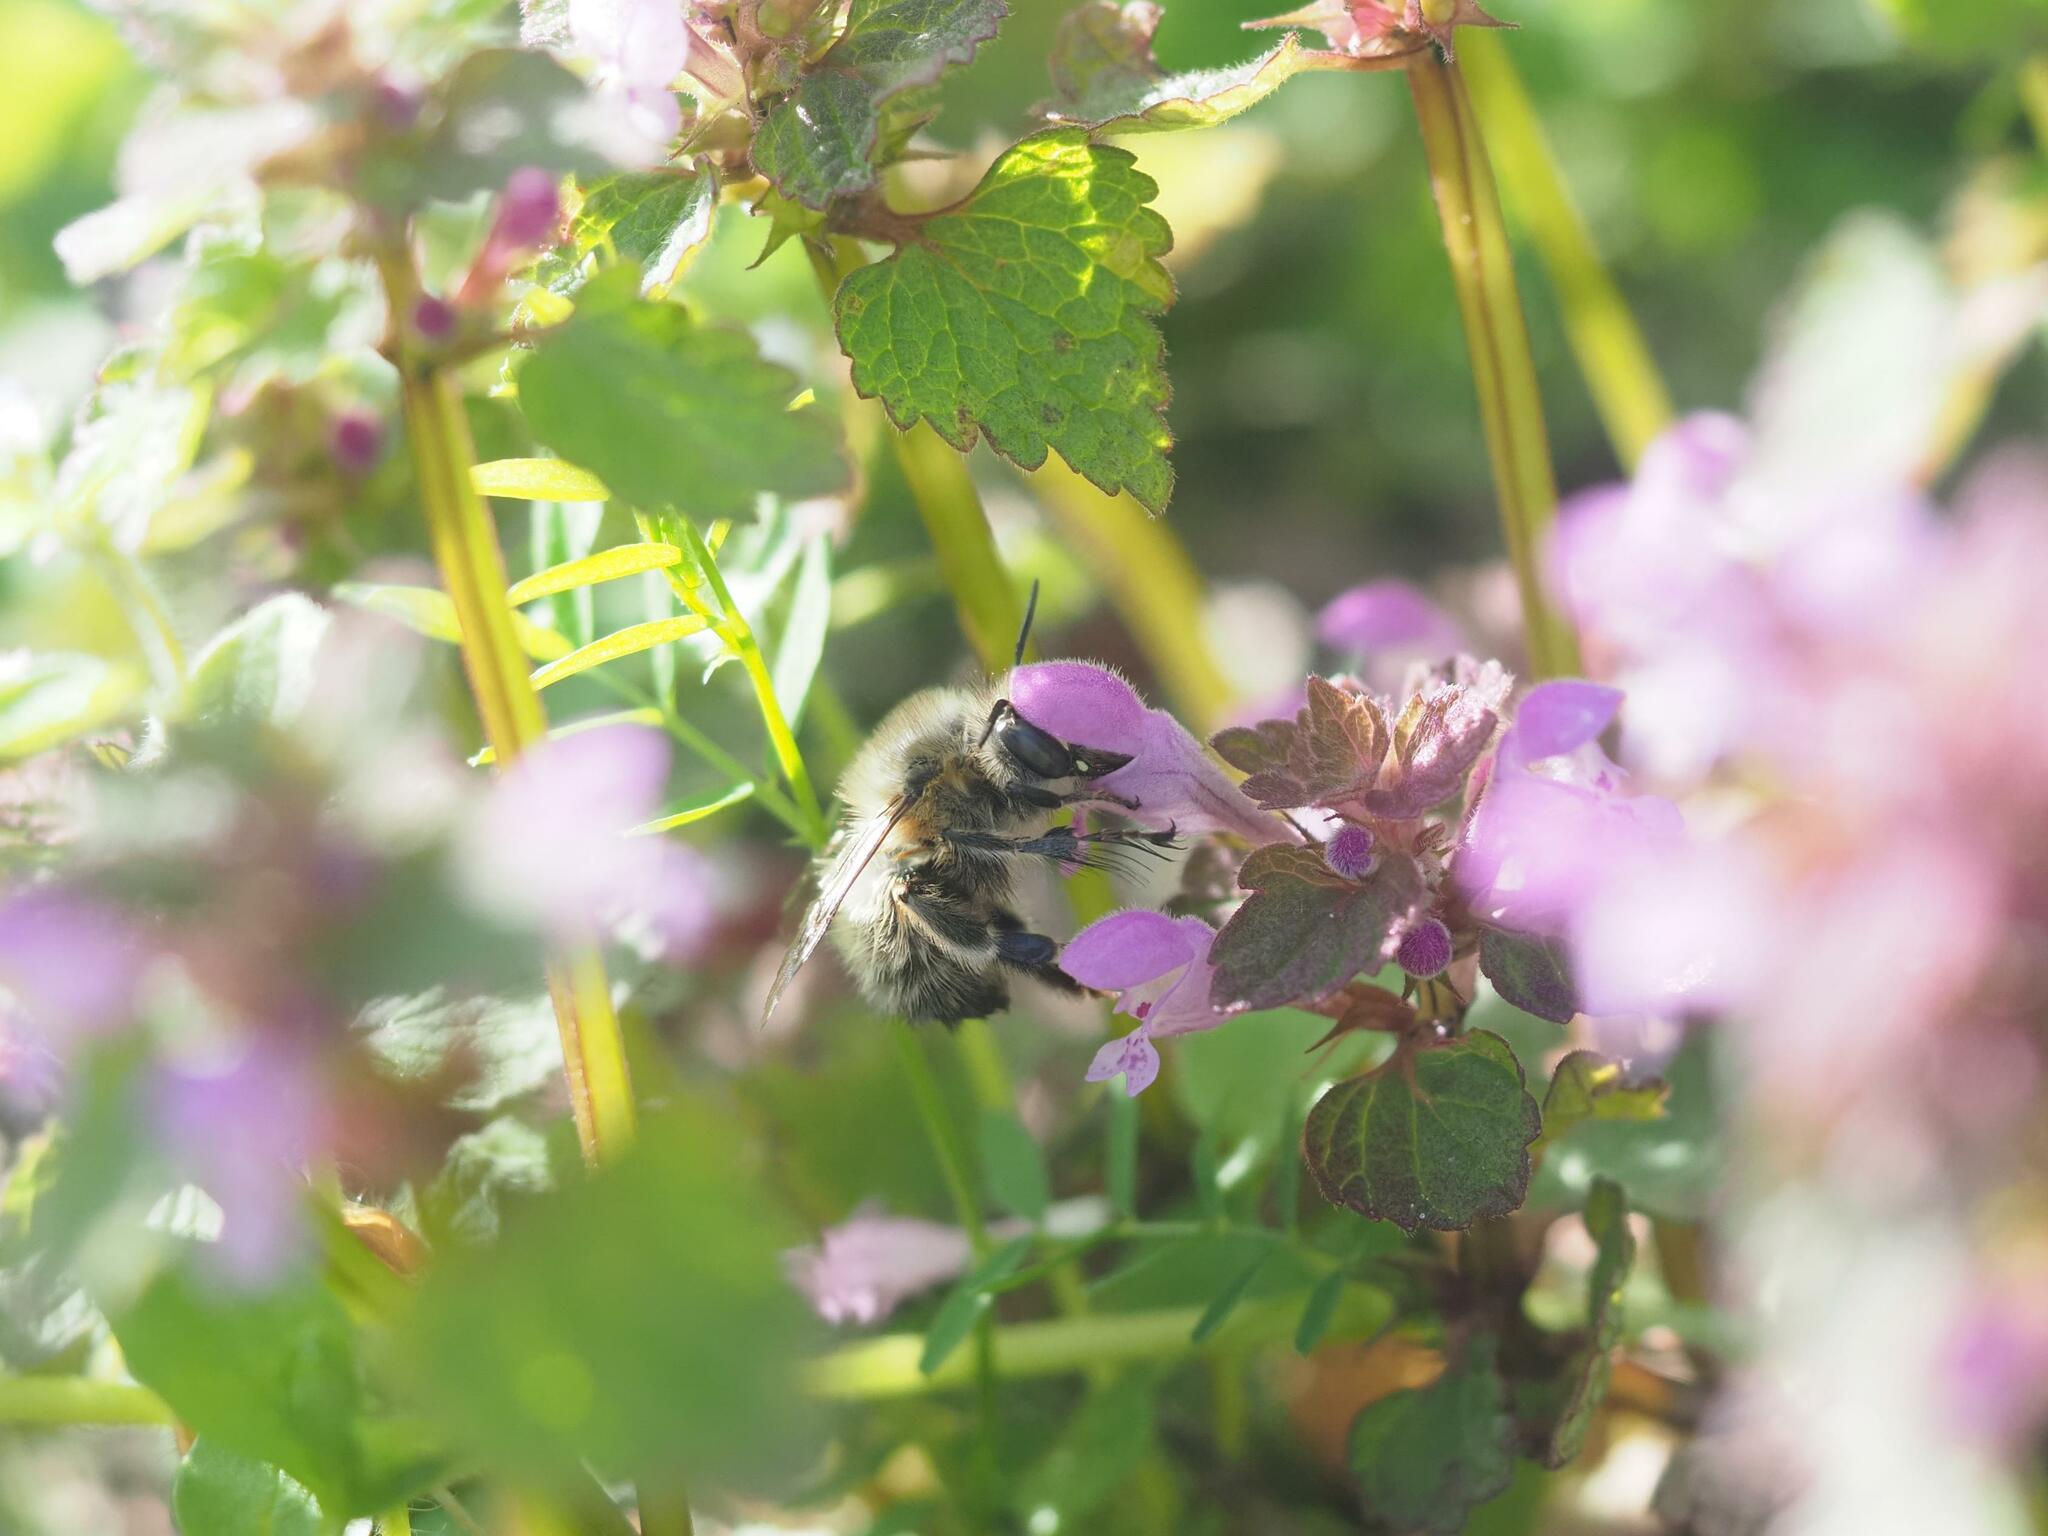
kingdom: Animalia
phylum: Arthropoda
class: Insecta
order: Hymenoptera
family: Apidae
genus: Anthophora
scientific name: Anthophora plumipes
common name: Hairy-footed flower bee
